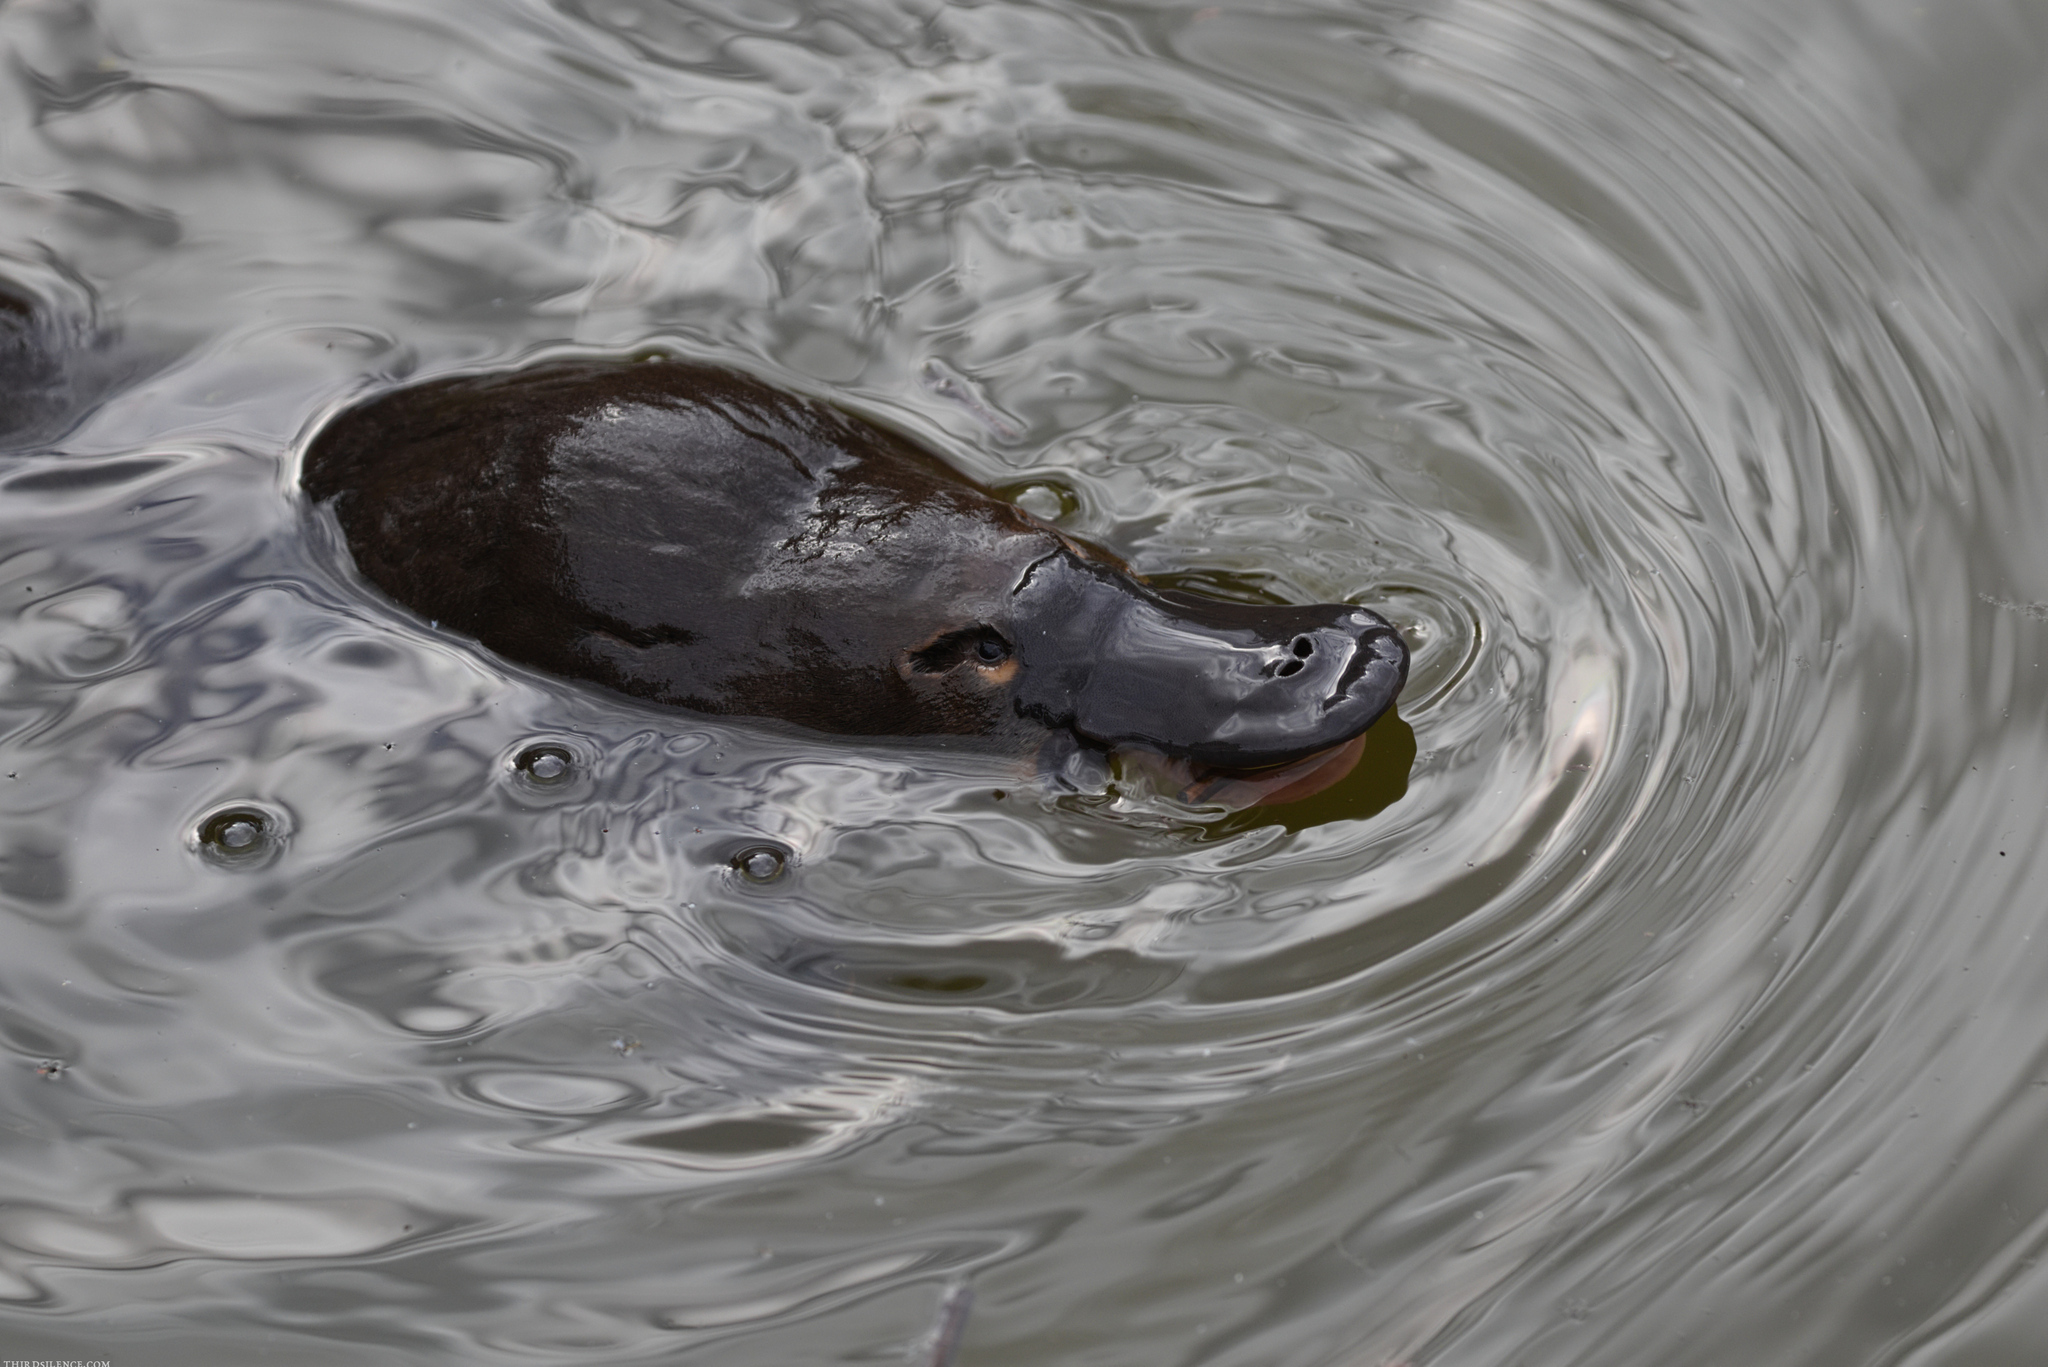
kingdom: Animalia
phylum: Chordata
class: Mammalia
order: Monotremata
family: Ornithorhynchidae
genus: Ornithorhynchus
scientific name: Ornithorhynchus anatinus
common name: Platypus
